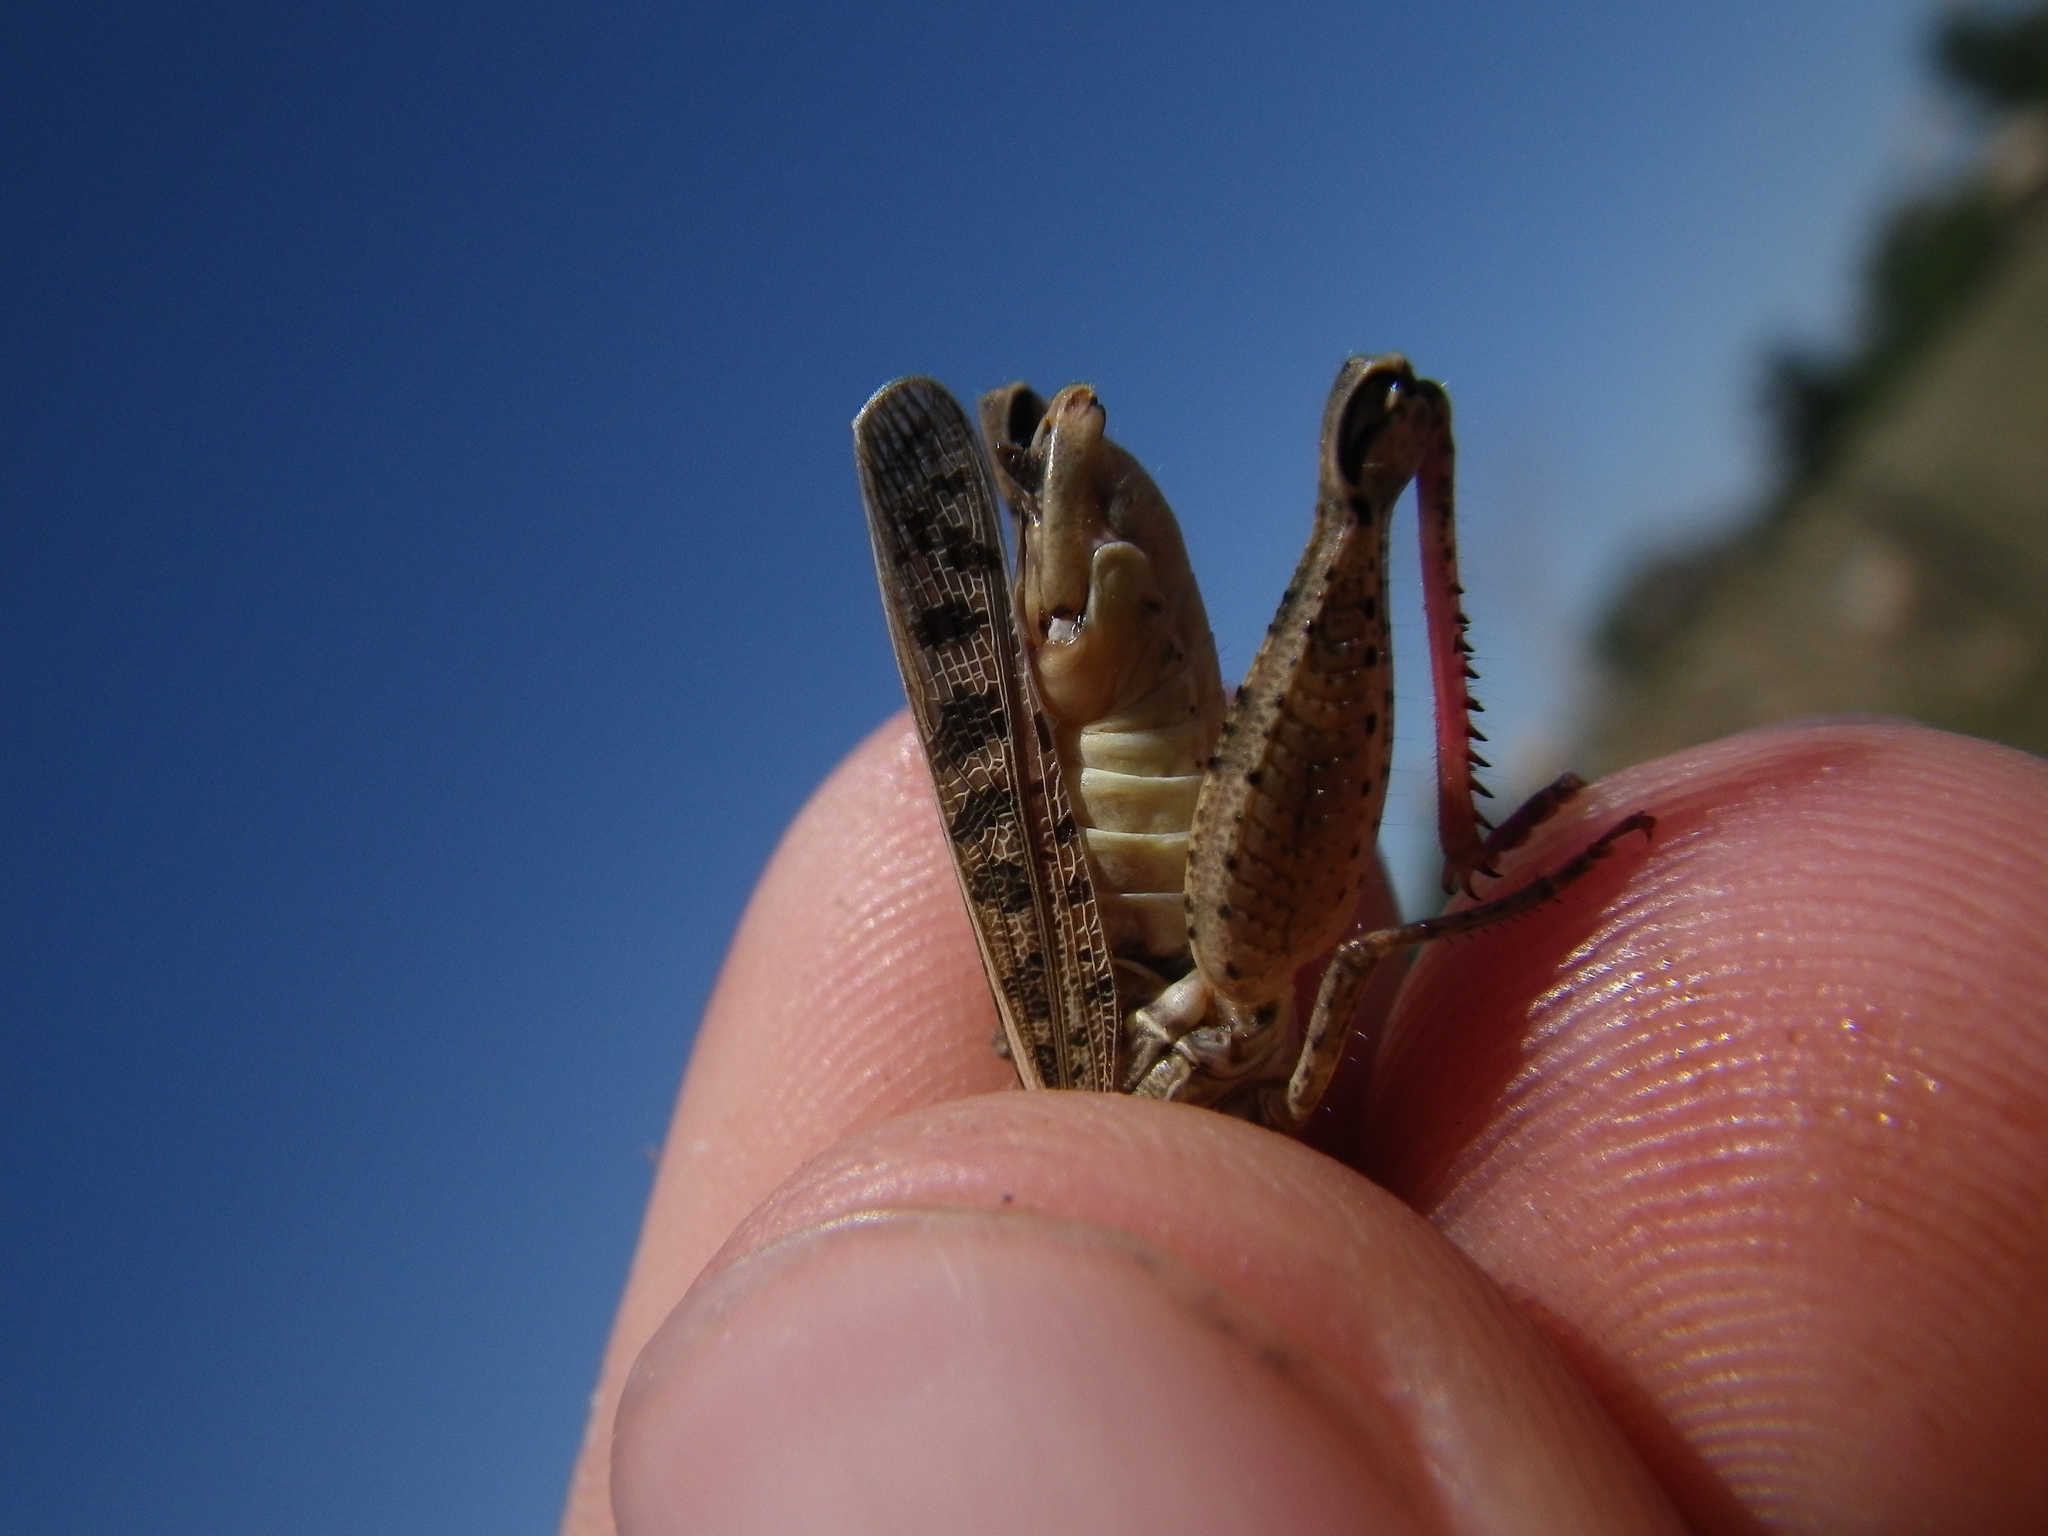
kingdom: Animalia
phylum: Arthropoda
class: Insecta
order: Orthoptera
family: Acrididae
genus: Calliptamus
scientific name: Calliptamus italicus
